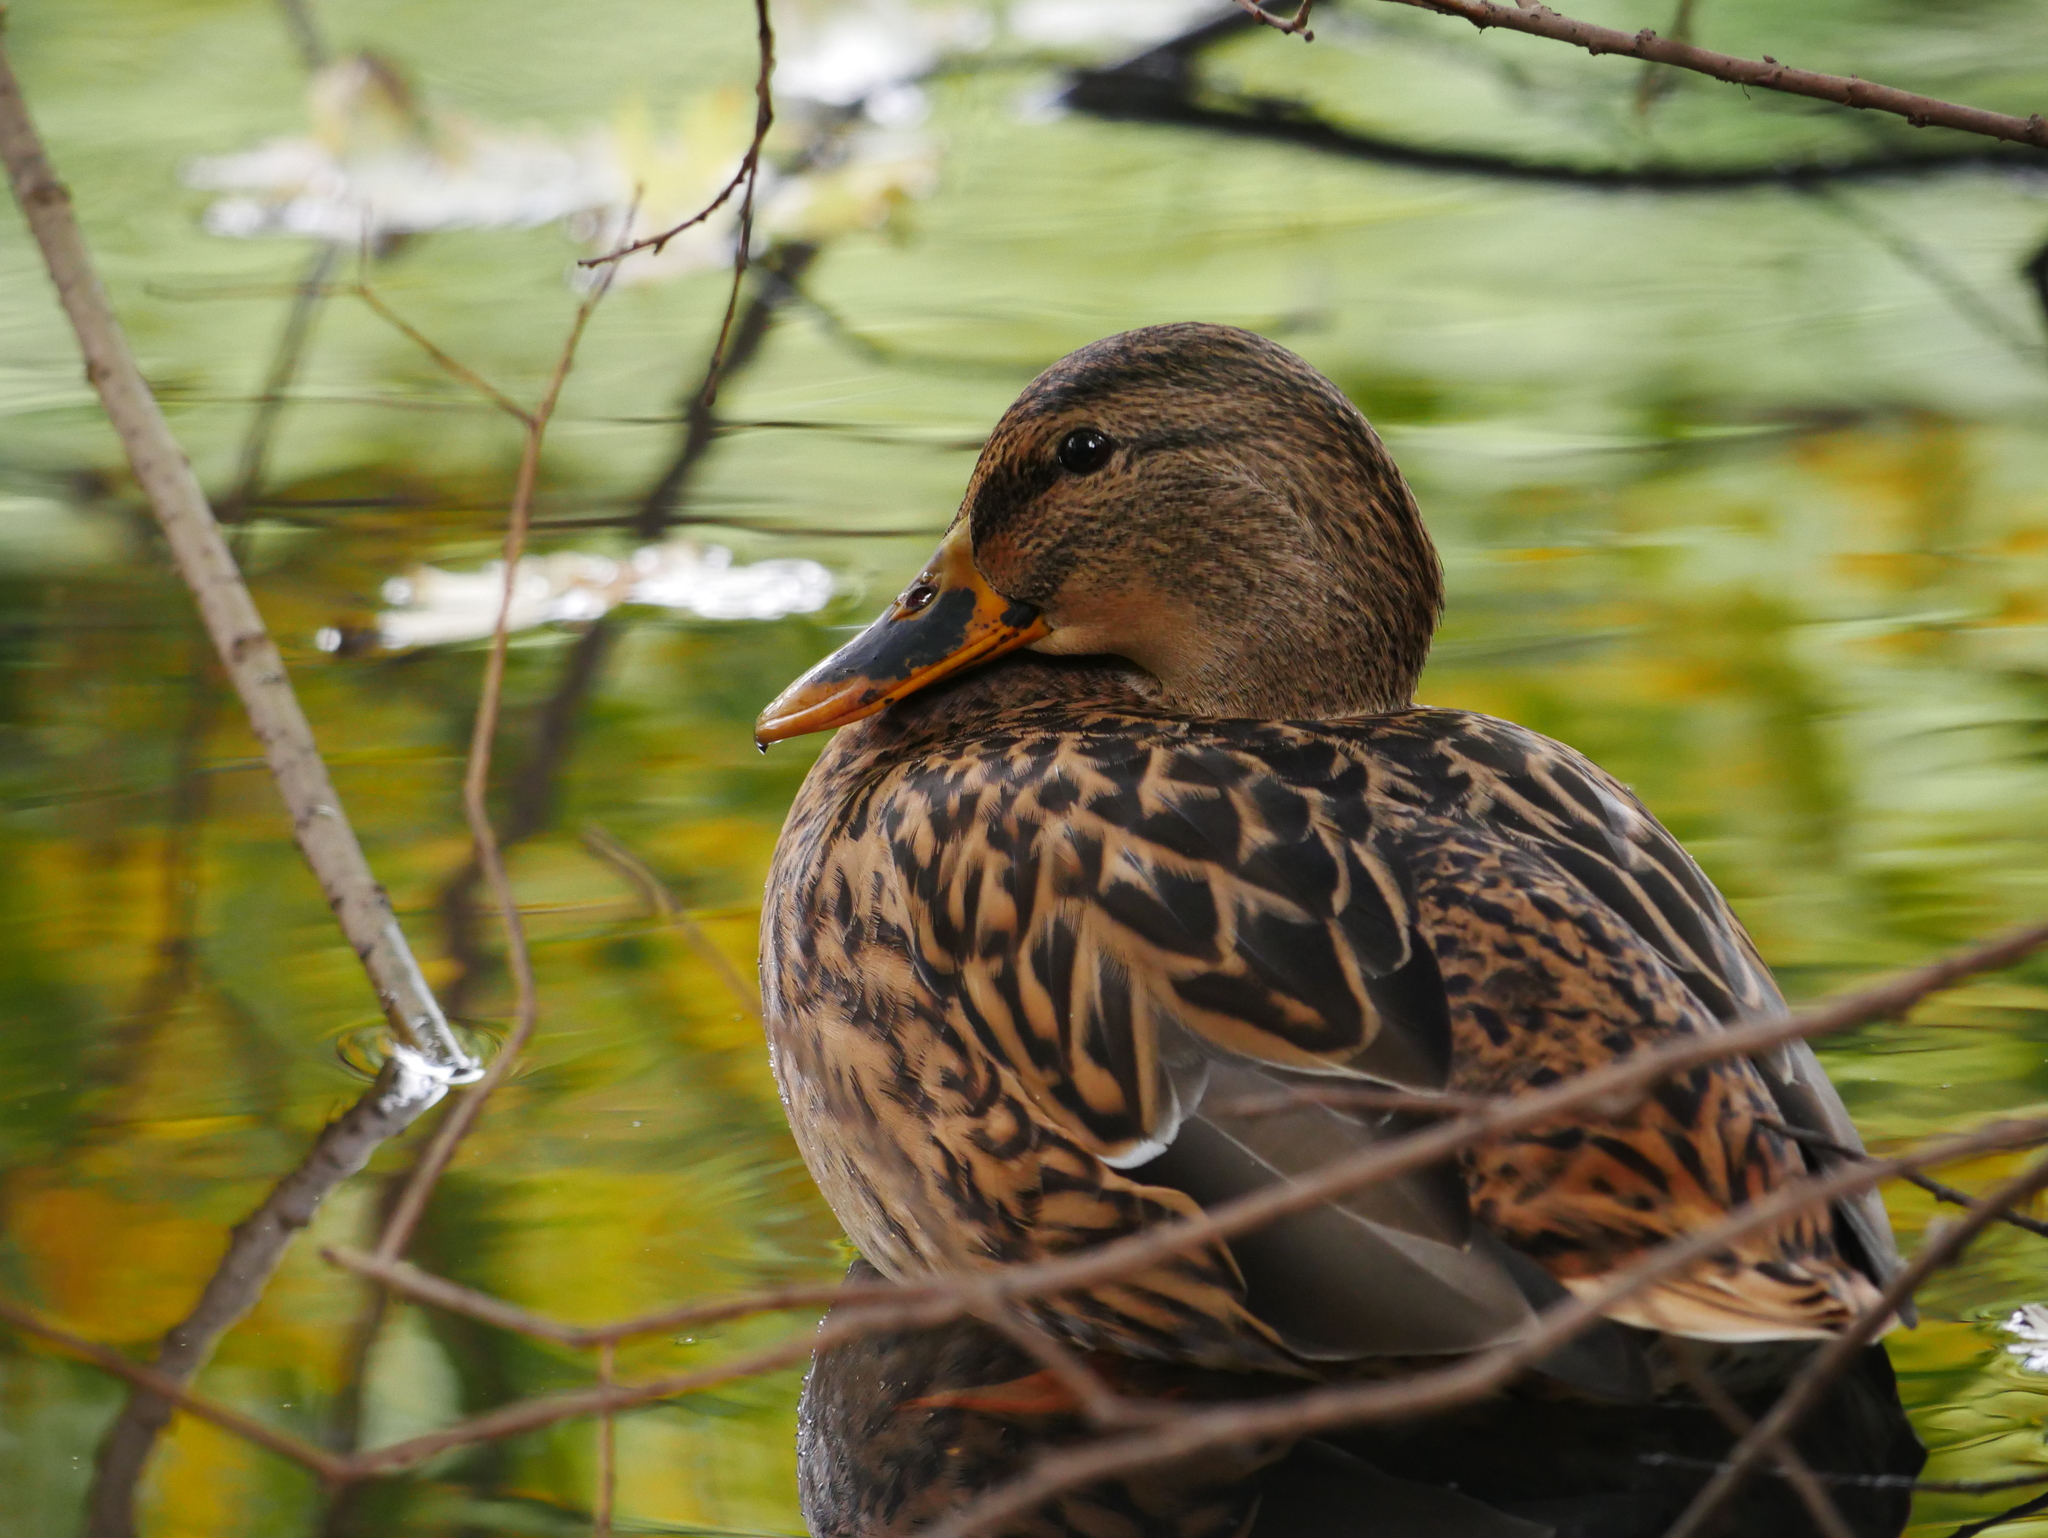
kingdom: Animalia
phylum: Chordata
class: Aves
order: Anseriformes
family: Anatidae
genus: Anas
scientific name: Anas platyrhynchos
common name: Mallard
